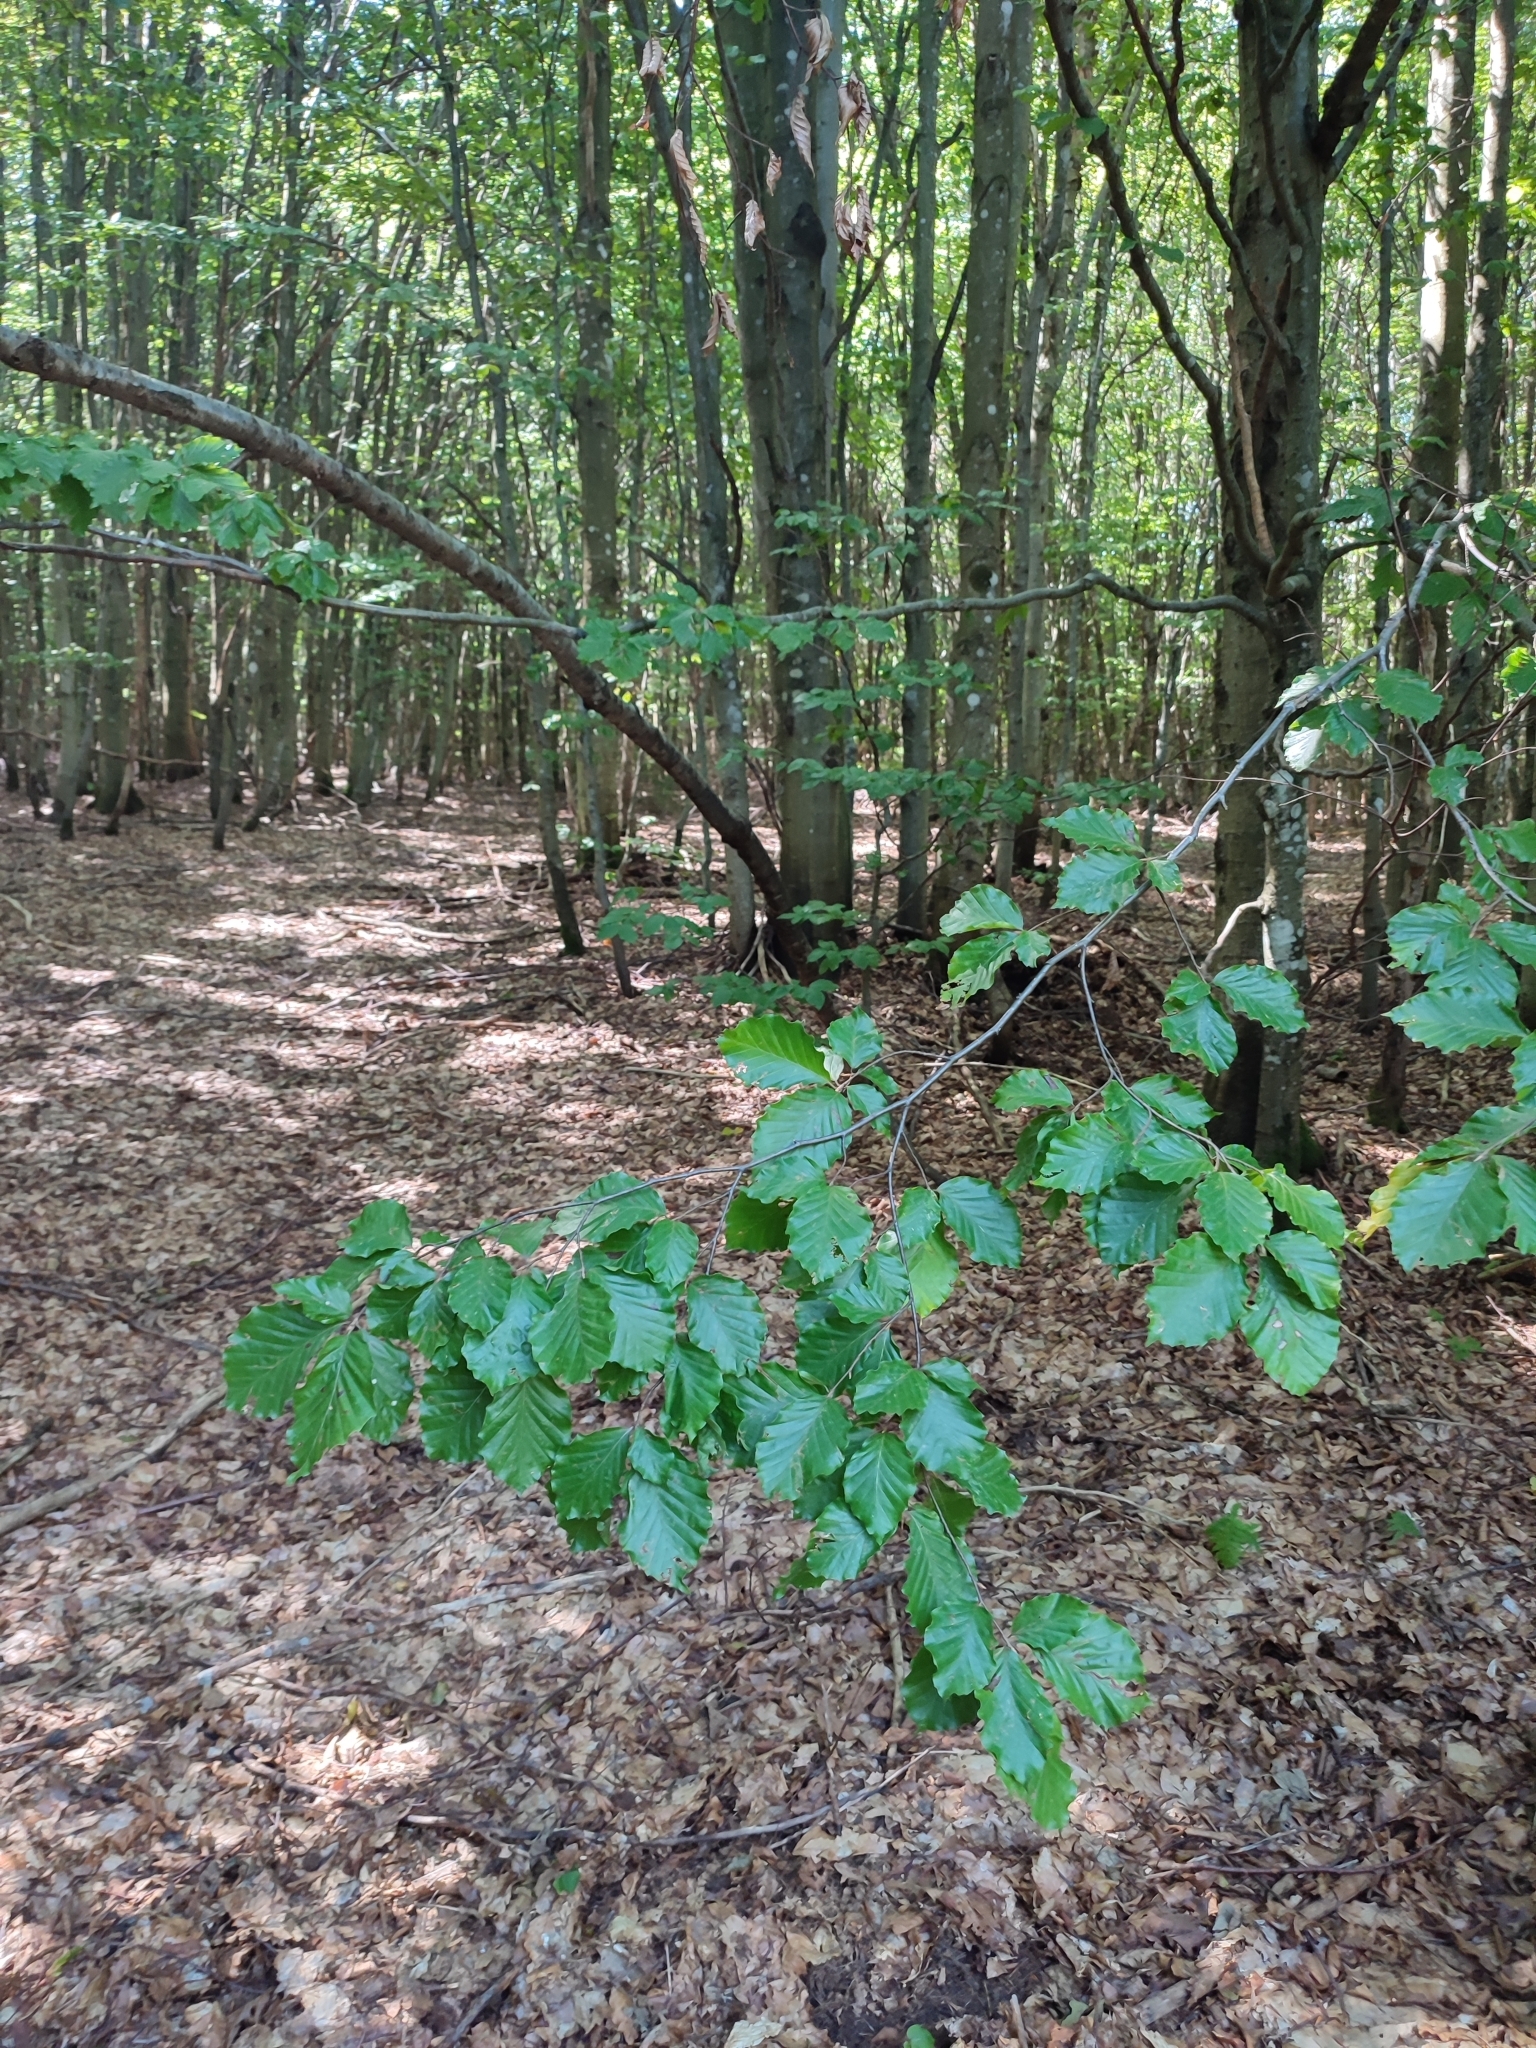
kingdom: Plantae
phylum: Tracheophyta
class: Magnoliopsida
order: Fagales
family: Fagaceae
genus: Fagus
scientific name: Fagus sylvatica
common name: Beech
